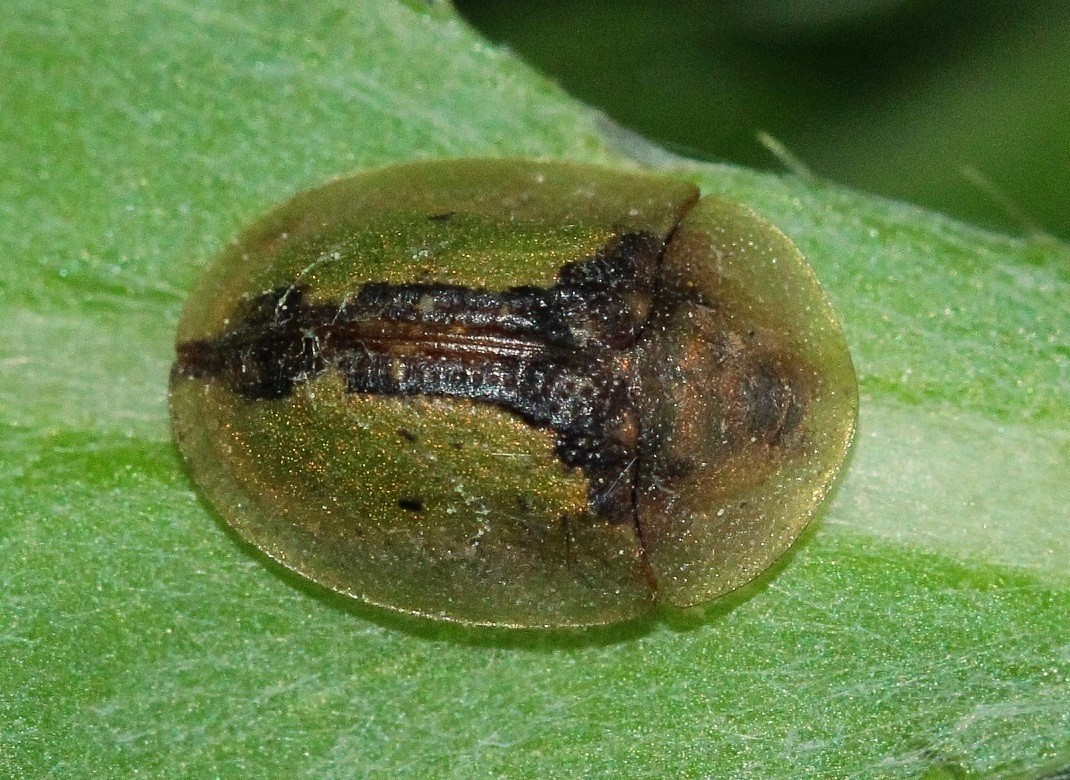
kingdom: Animalia
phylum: Arthropoda
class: Insecta
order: Coleoptera
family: Chrysomelidae
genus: Cassida
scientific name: Cassida vibex
